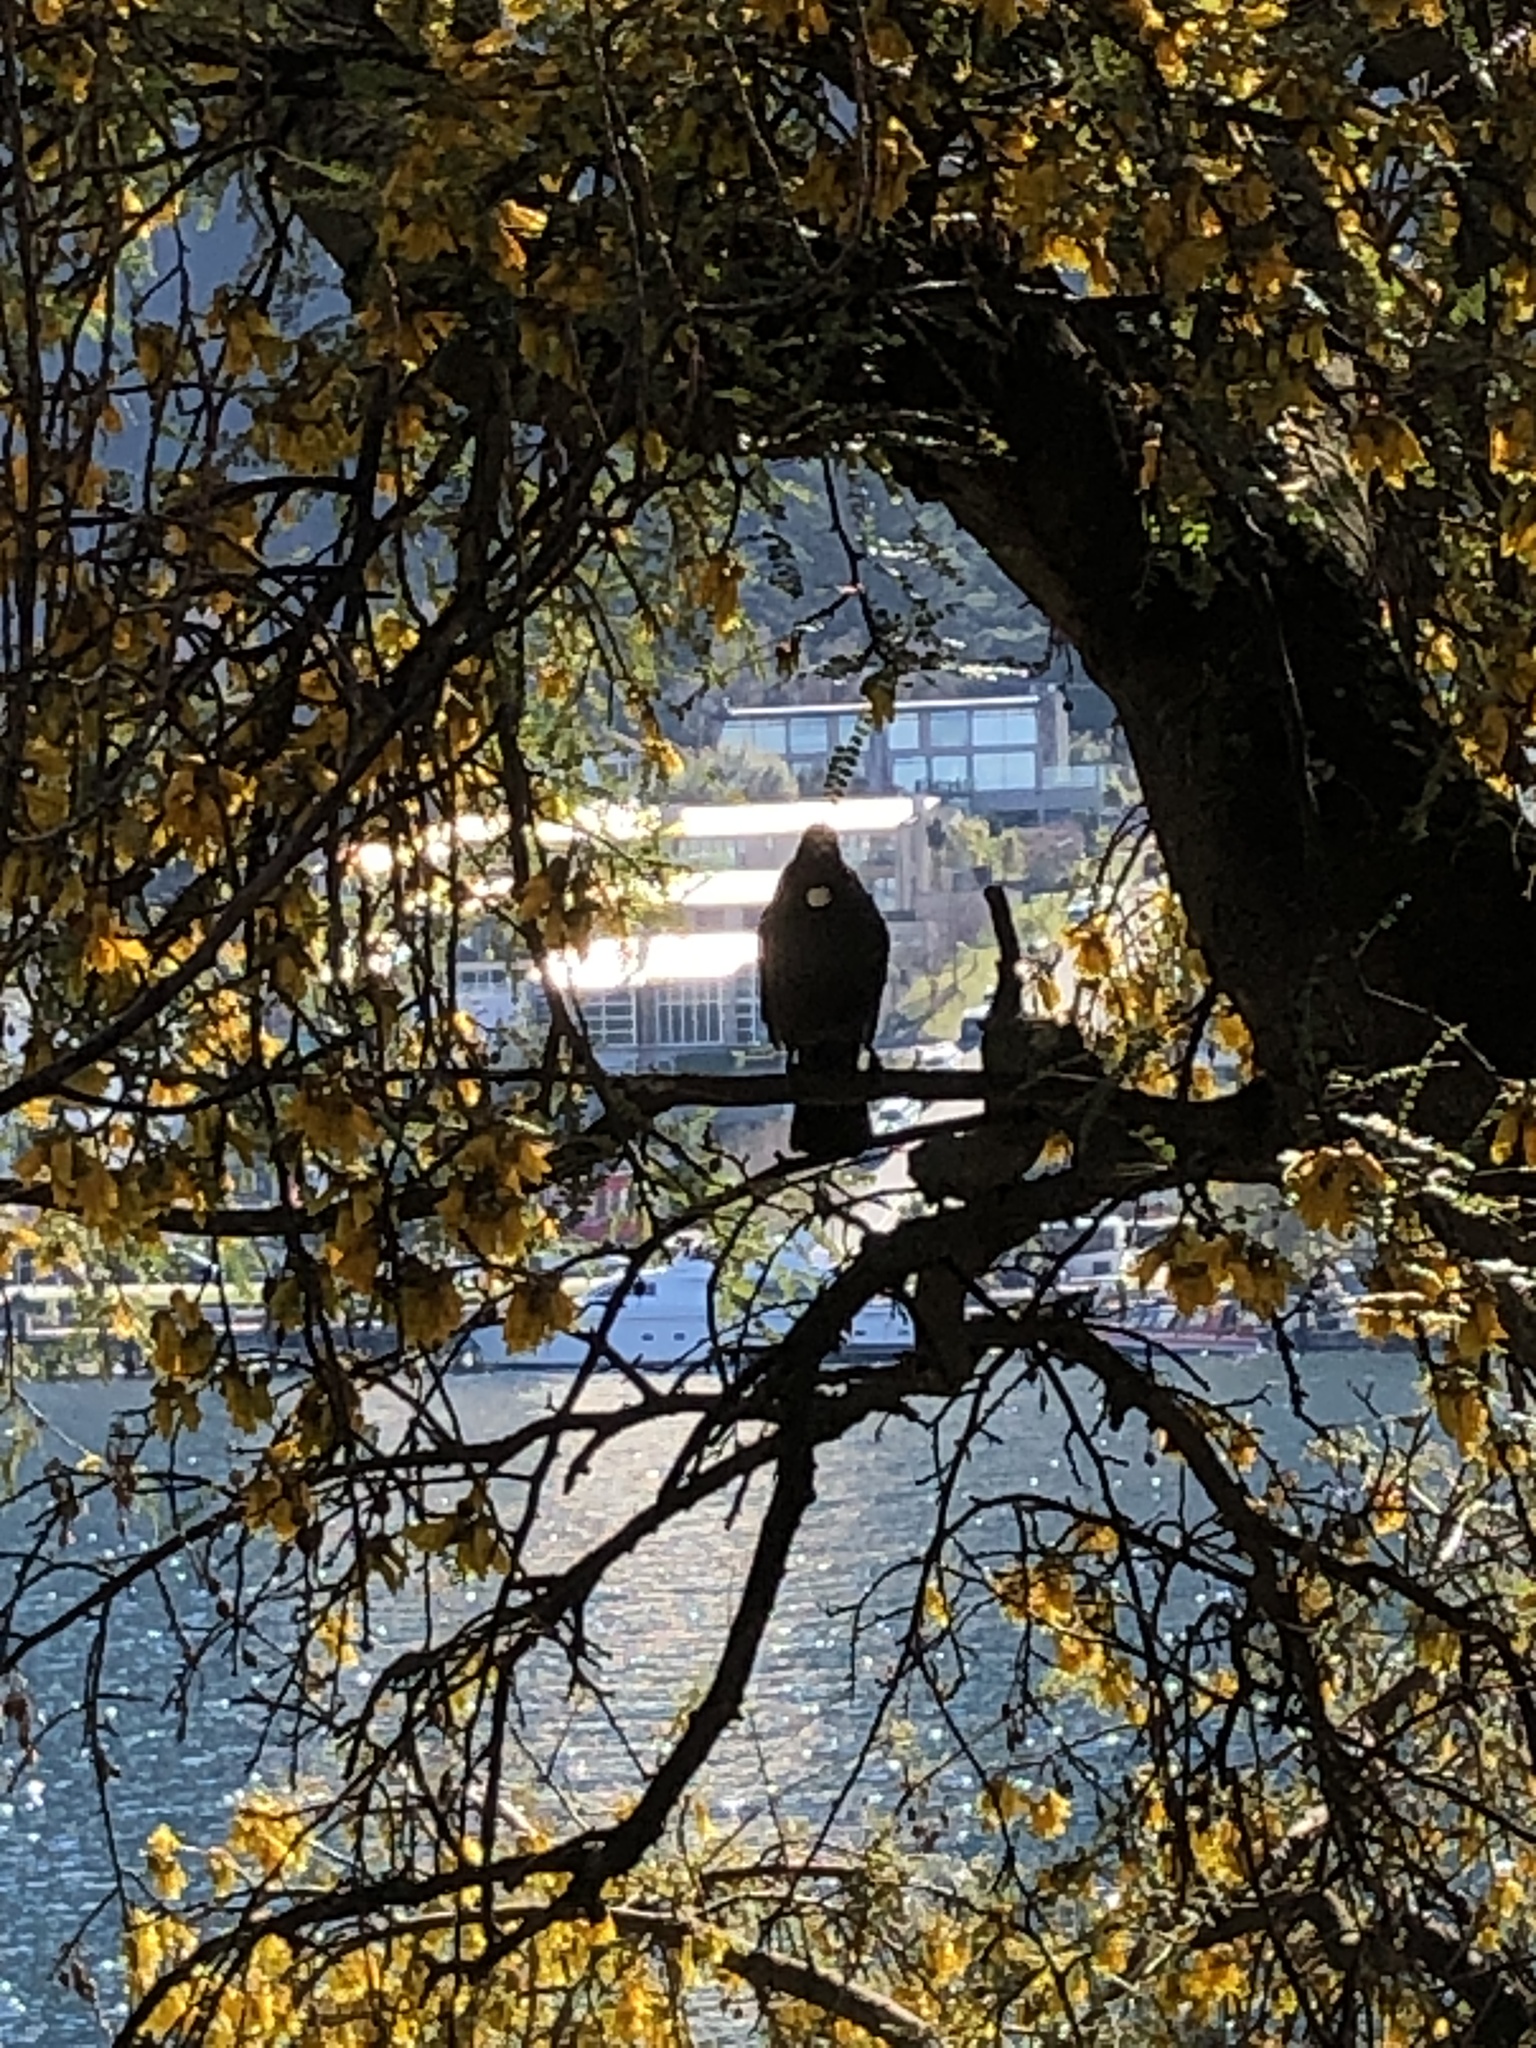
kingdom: Animalia
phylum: Chordata
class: Aves
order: Passeriformes
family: Meliphagidae
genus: Prosthemadera
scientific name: Prosthemadera novaeseelandiae
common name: Tui
